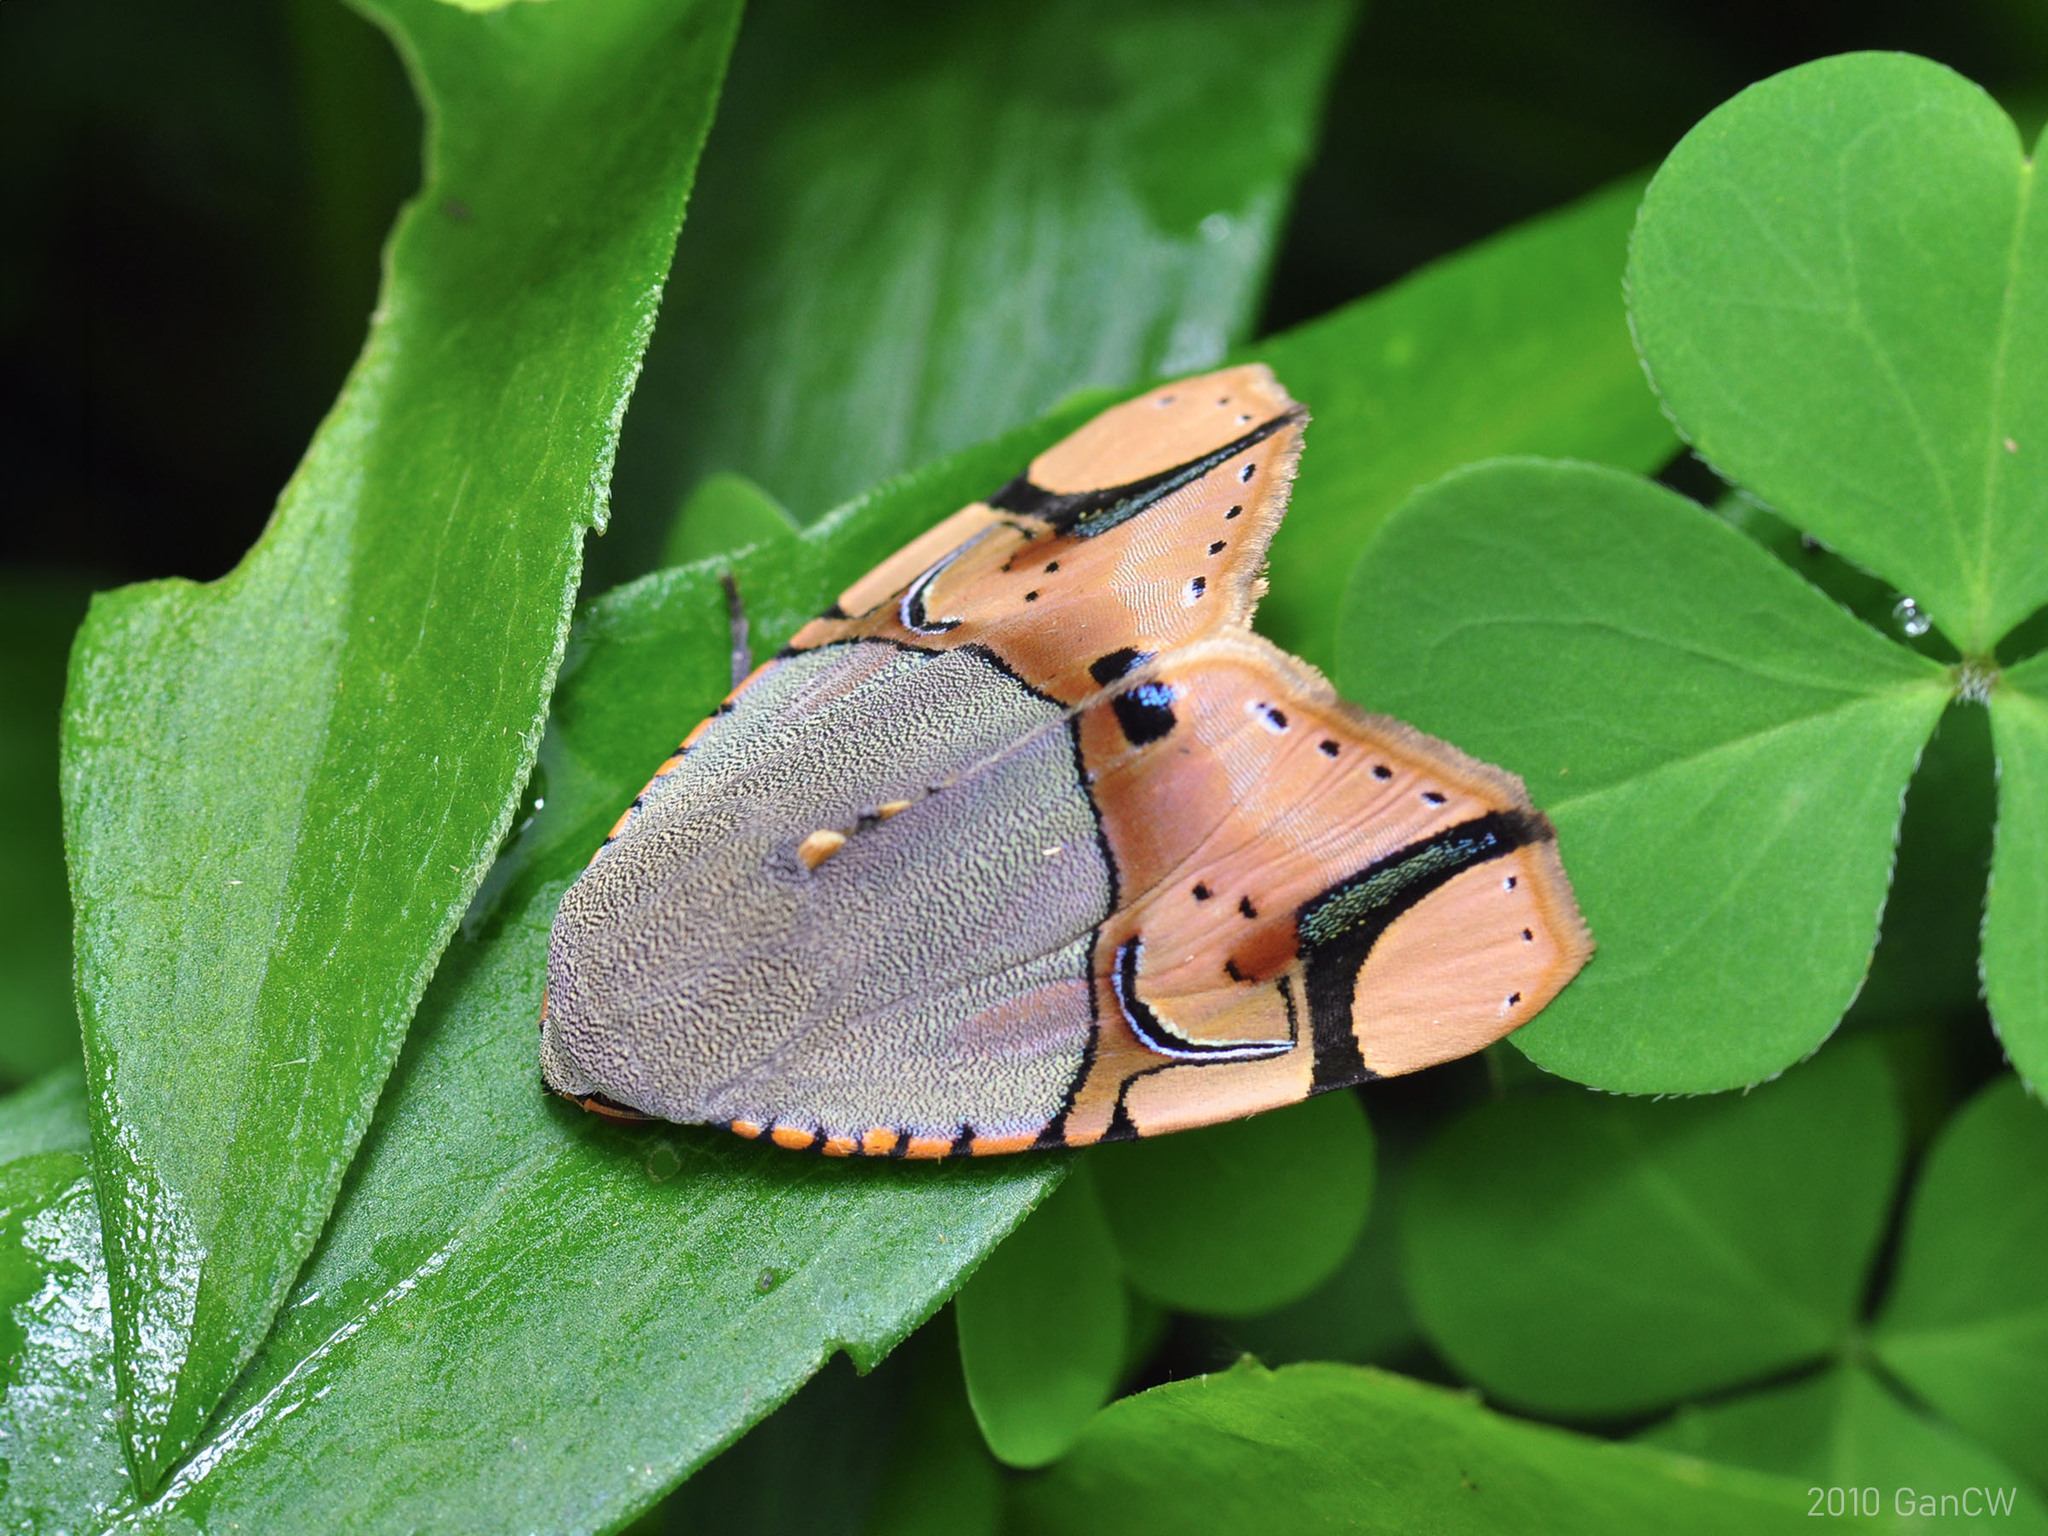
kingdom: Animalia
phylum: Arthropoda
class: Insecta
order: Lepidoptera
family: Erebidae
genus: Ramadasa
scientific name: Ramadasa pavo
